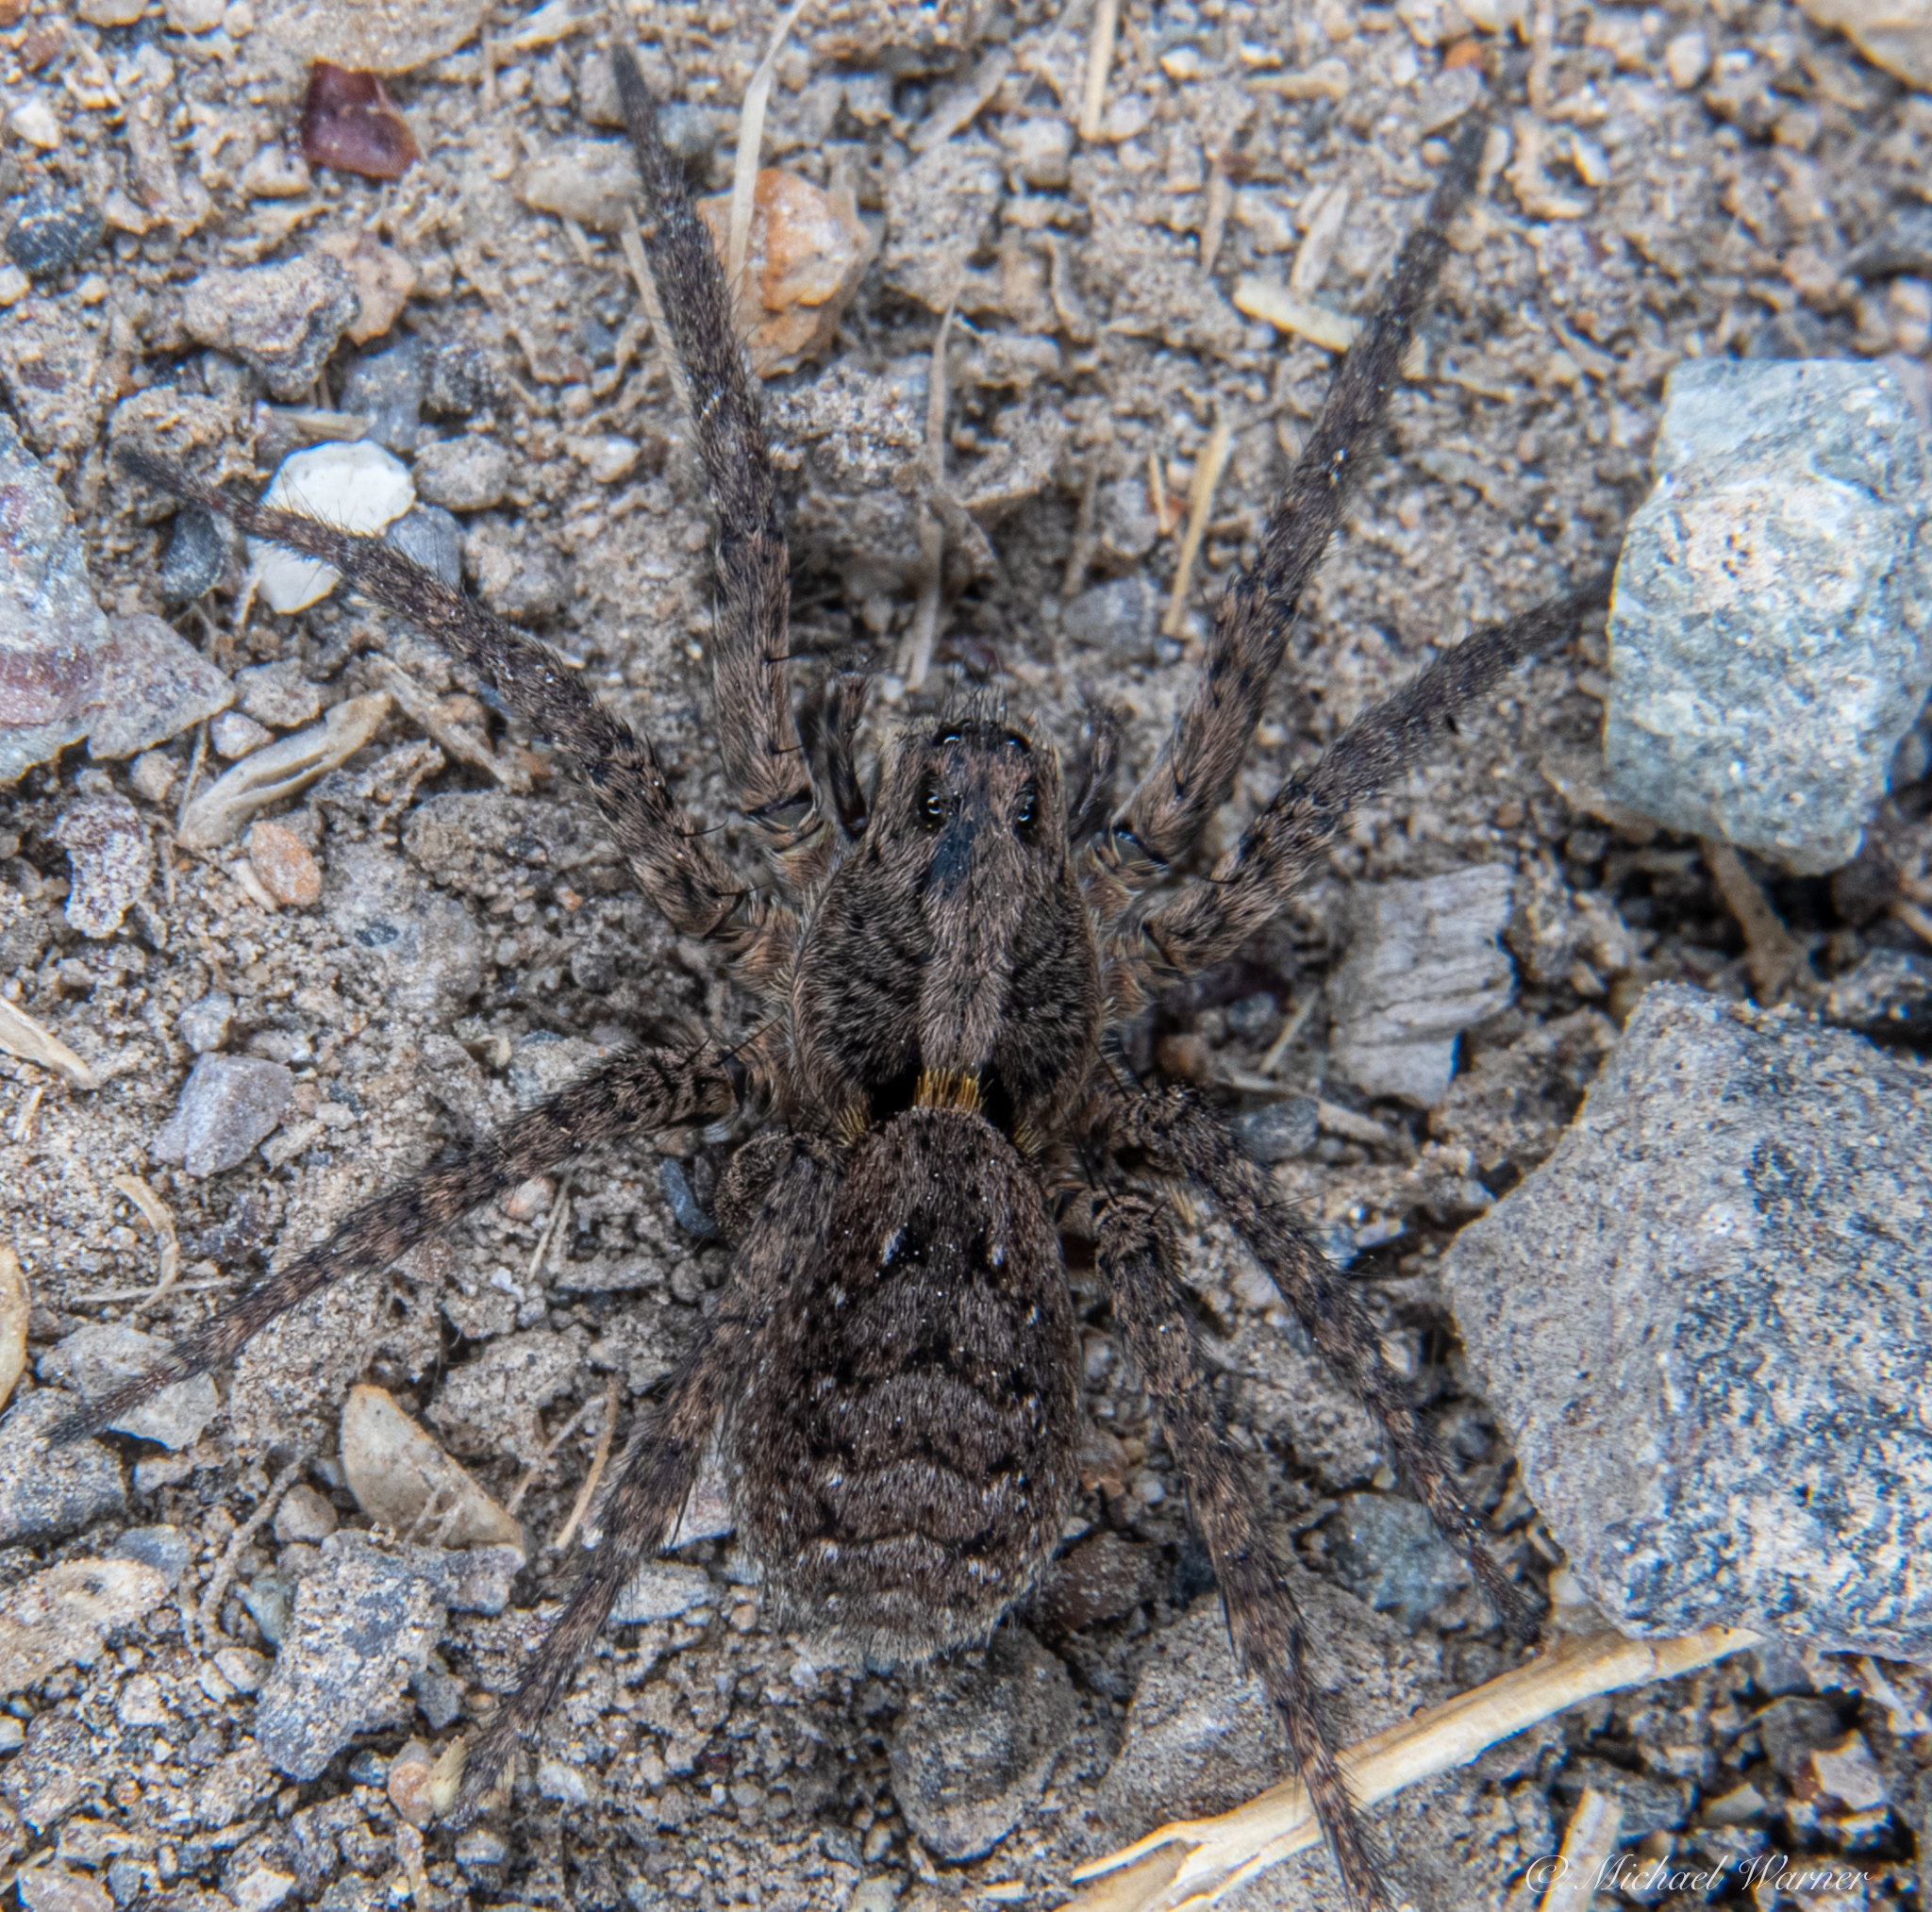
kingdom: Animalia
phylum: Arthropoda
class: Arachnida
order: Araneae
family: Lycosidae
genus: Alopecosa
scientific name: Alopecosa kochi
